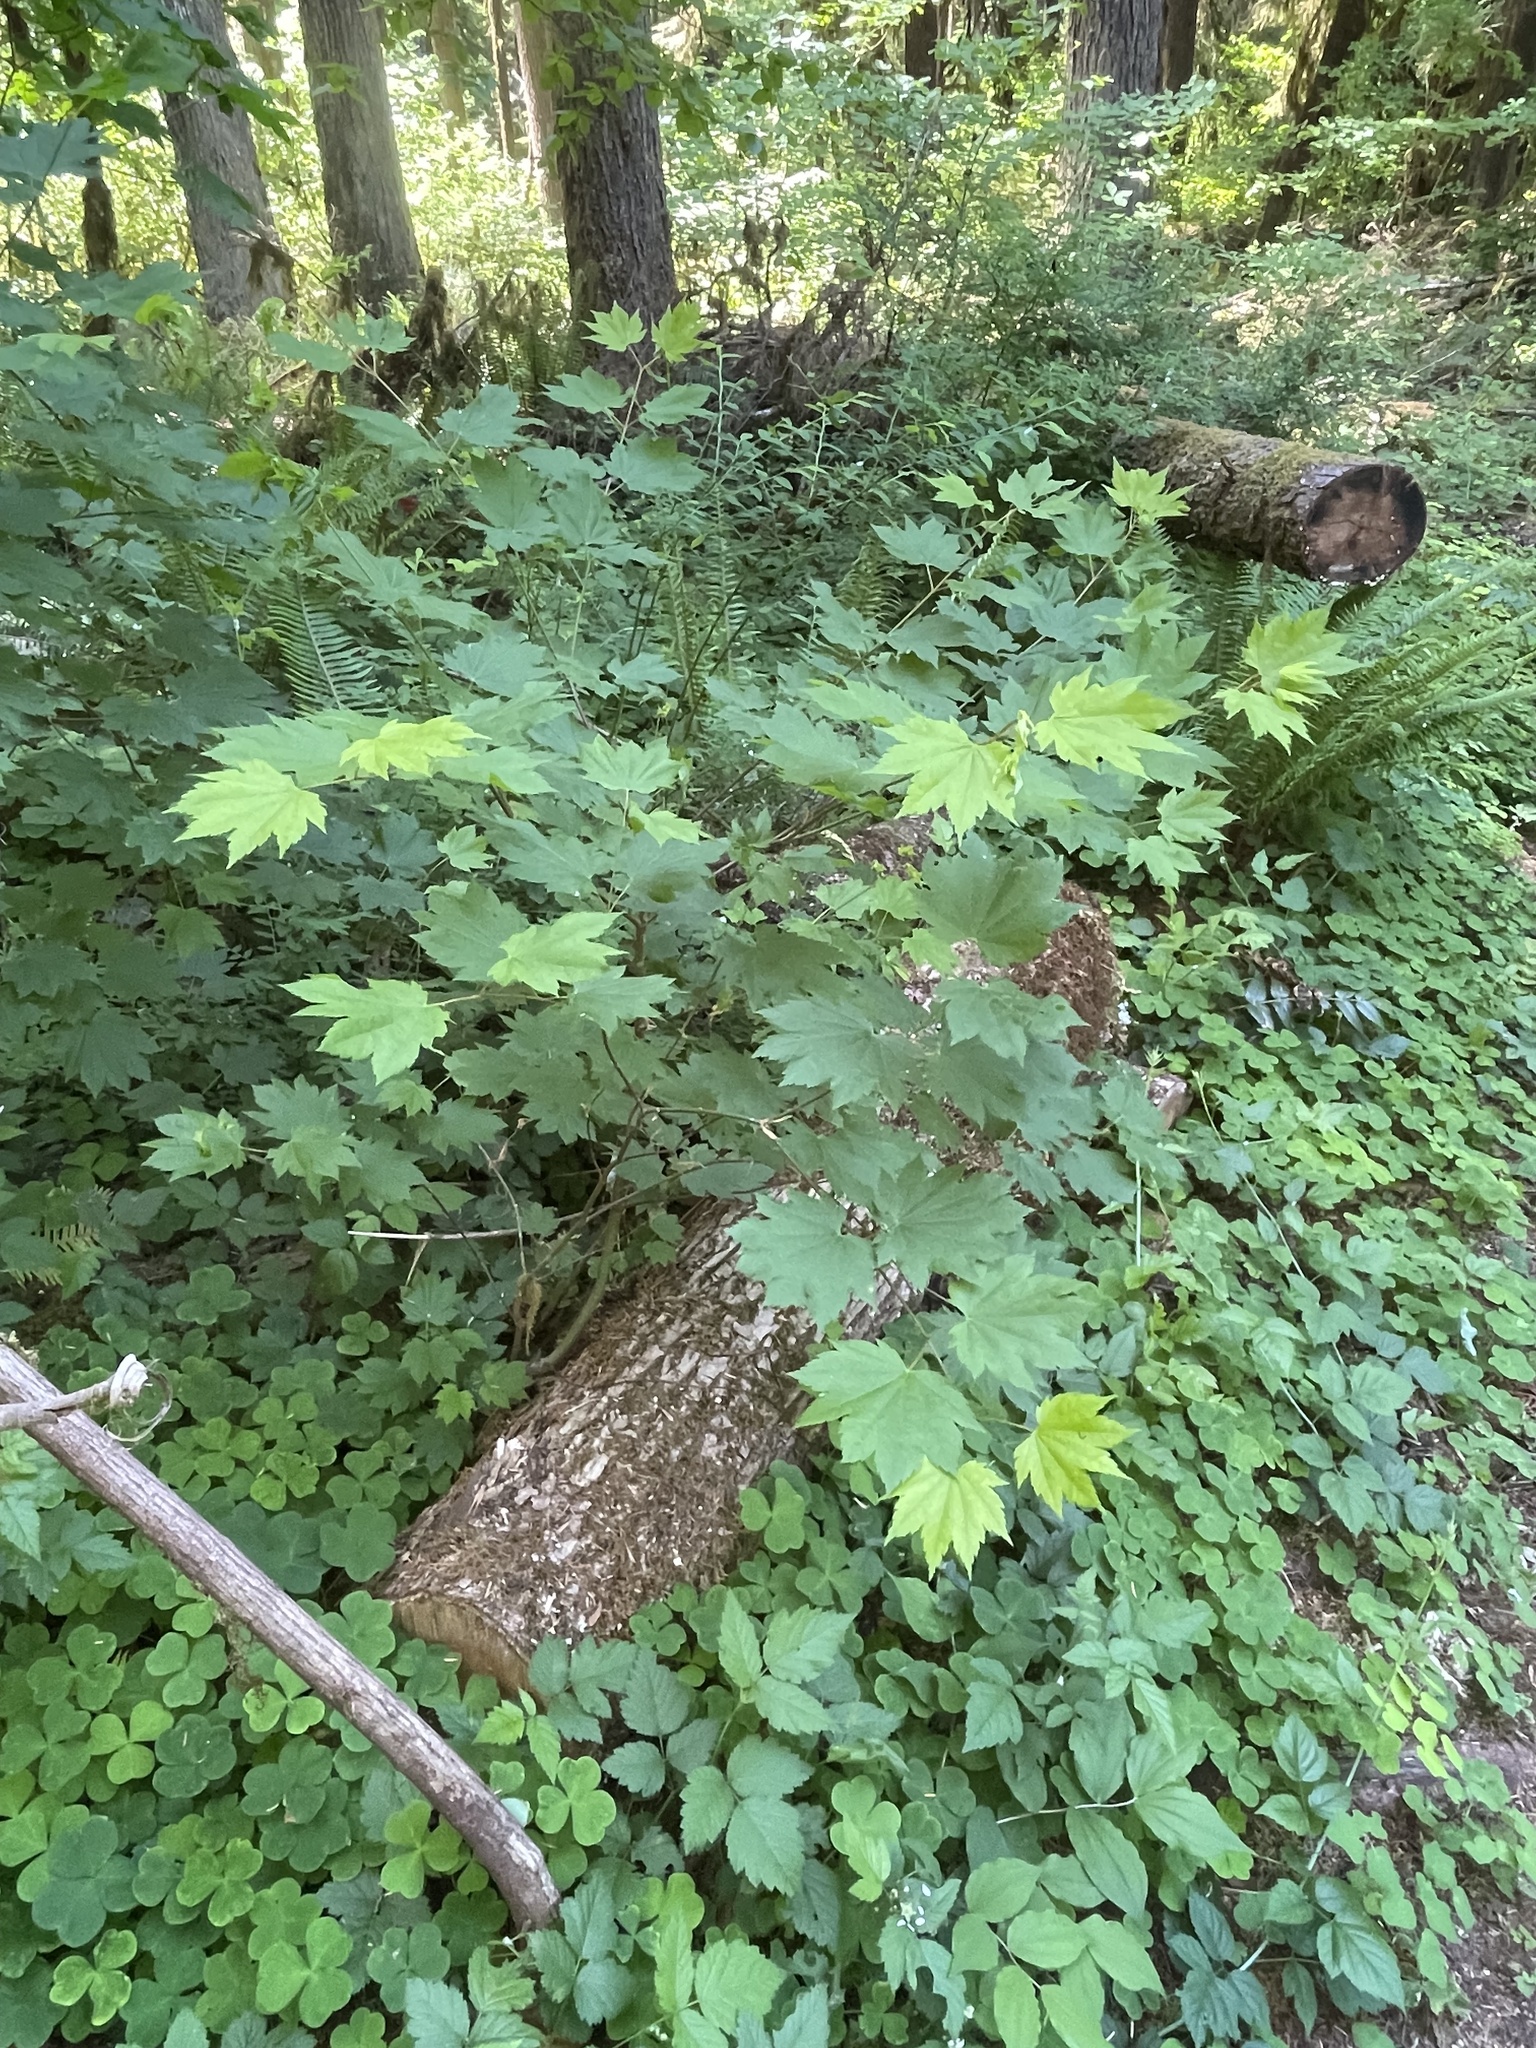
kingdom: Plantae
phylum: Tracheophyta
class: Magnoliopsida
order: Sapindales
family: Sapindaceae
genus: Acer
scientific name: Acer circinatum
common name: Vine maple
